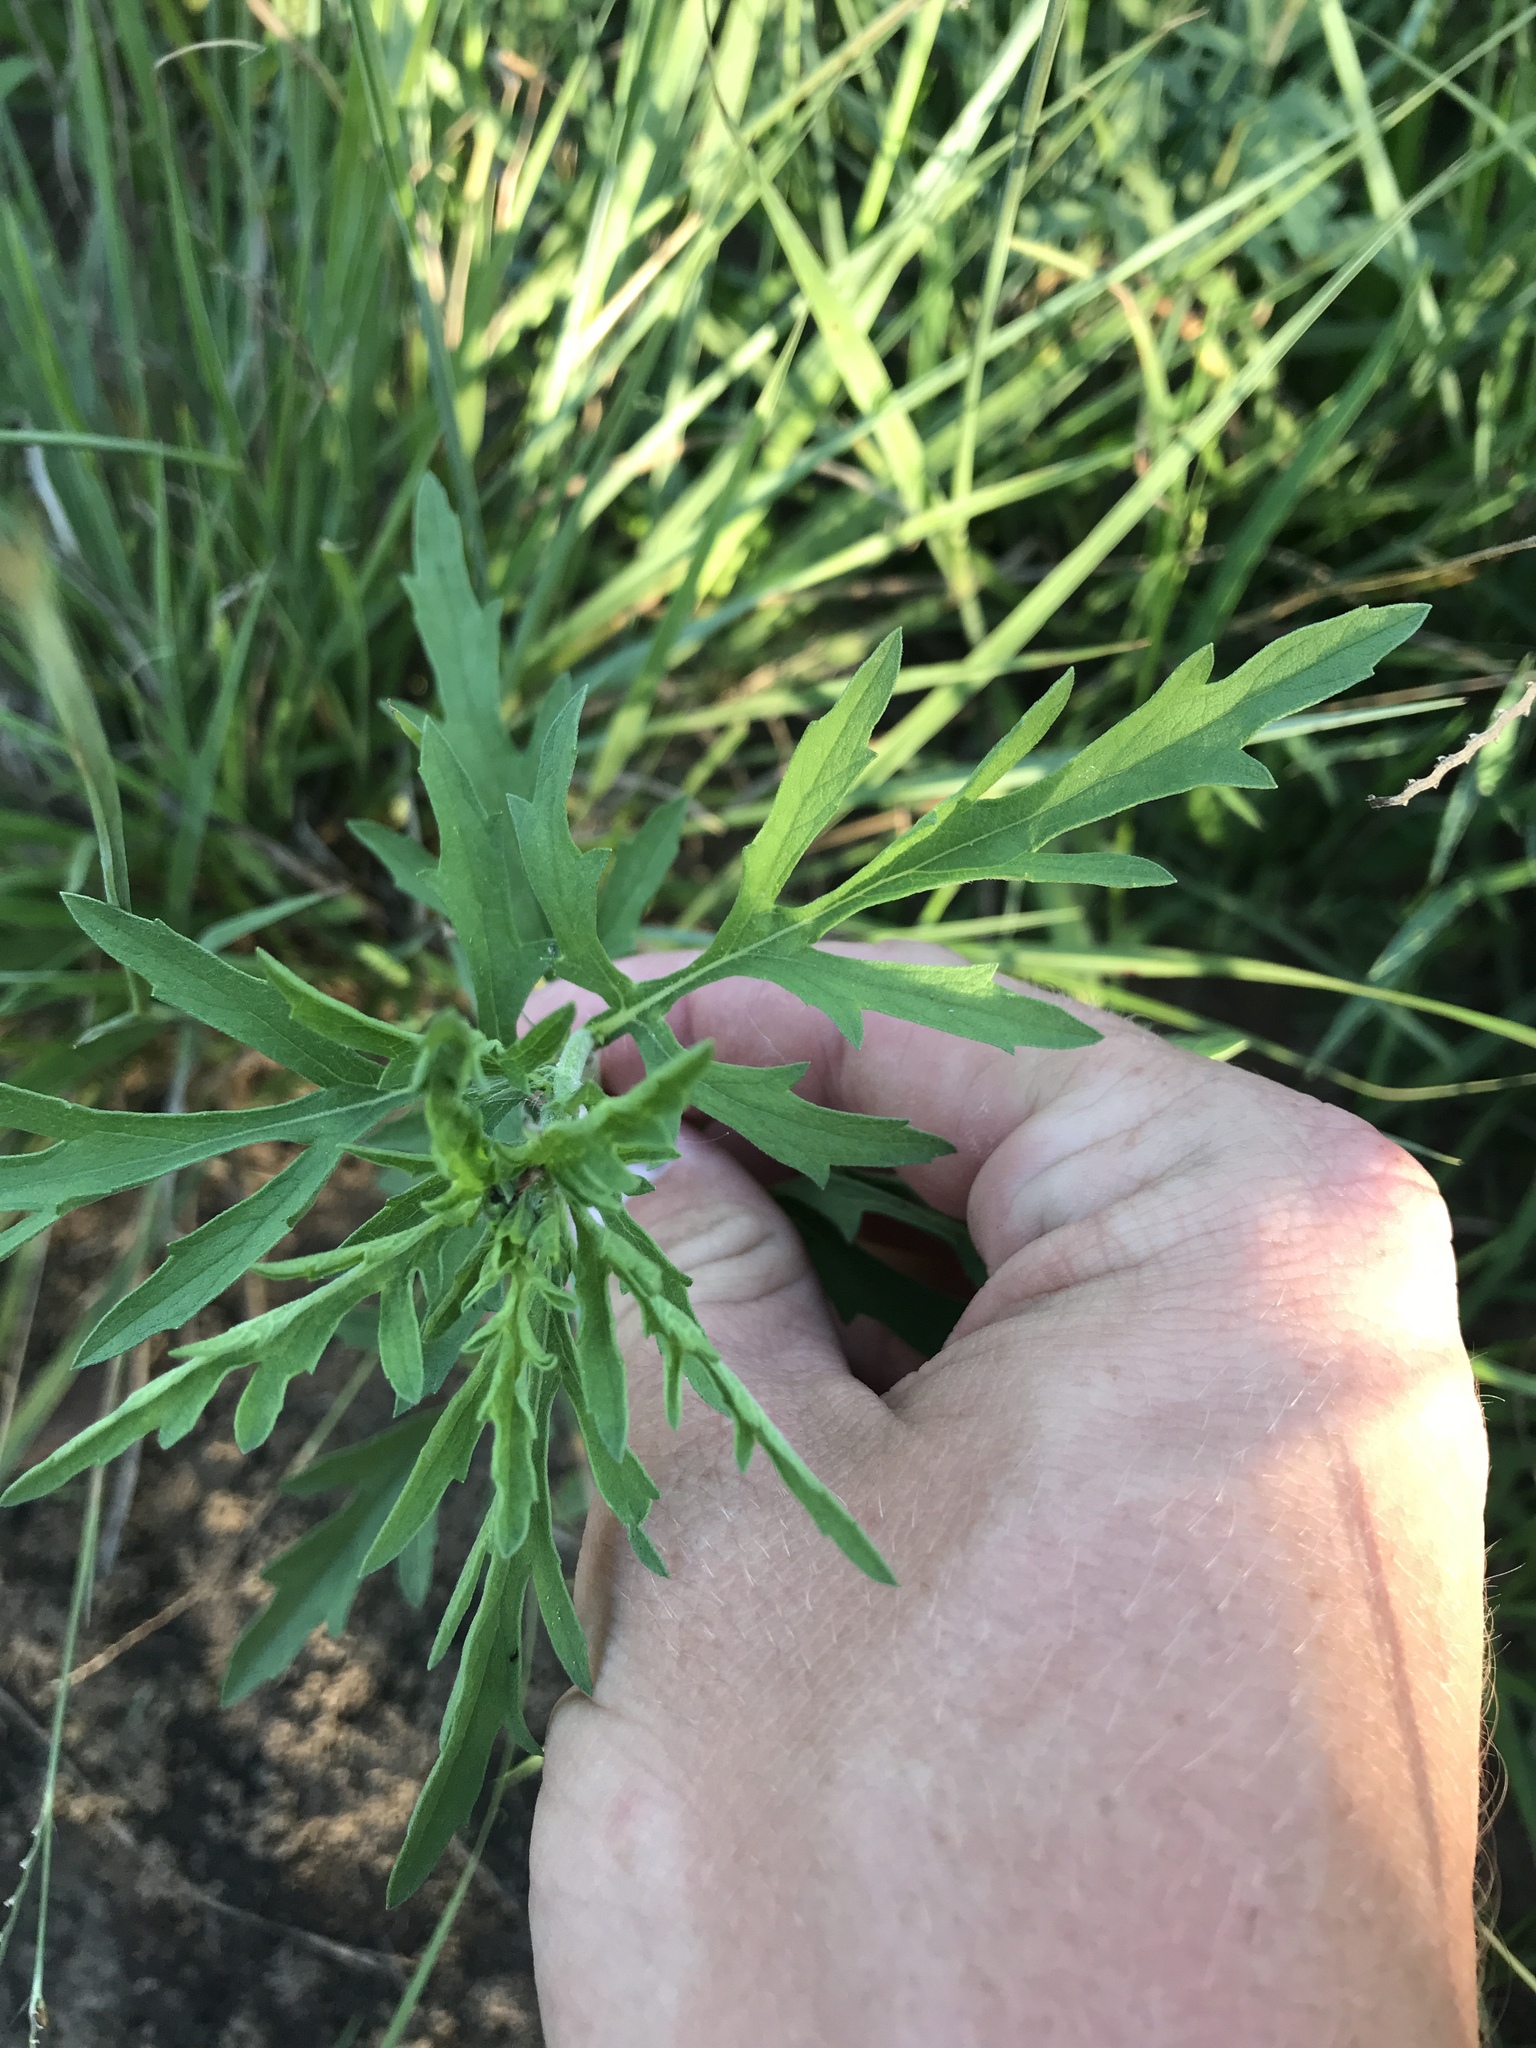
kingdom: Plantae
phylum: Tracheophyta
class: Magnoliopsida
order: Asterales
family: Asteraceae
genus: Ambrosia
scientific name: Ambrosia psilostachya
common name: Perennial ragweed
